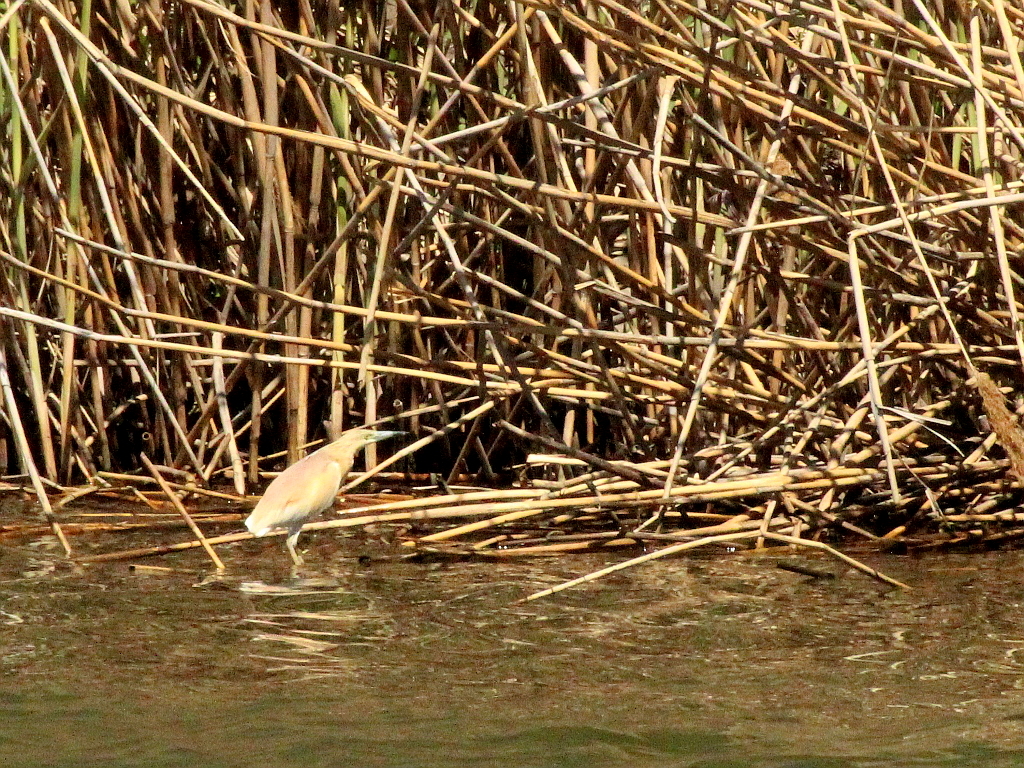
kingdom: Animalia
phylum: Chordata
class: Aves
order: Pelecaniformes
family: Ardeidae
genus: Ardeola
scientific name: Ardeola ralloides
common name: Squacco heron
